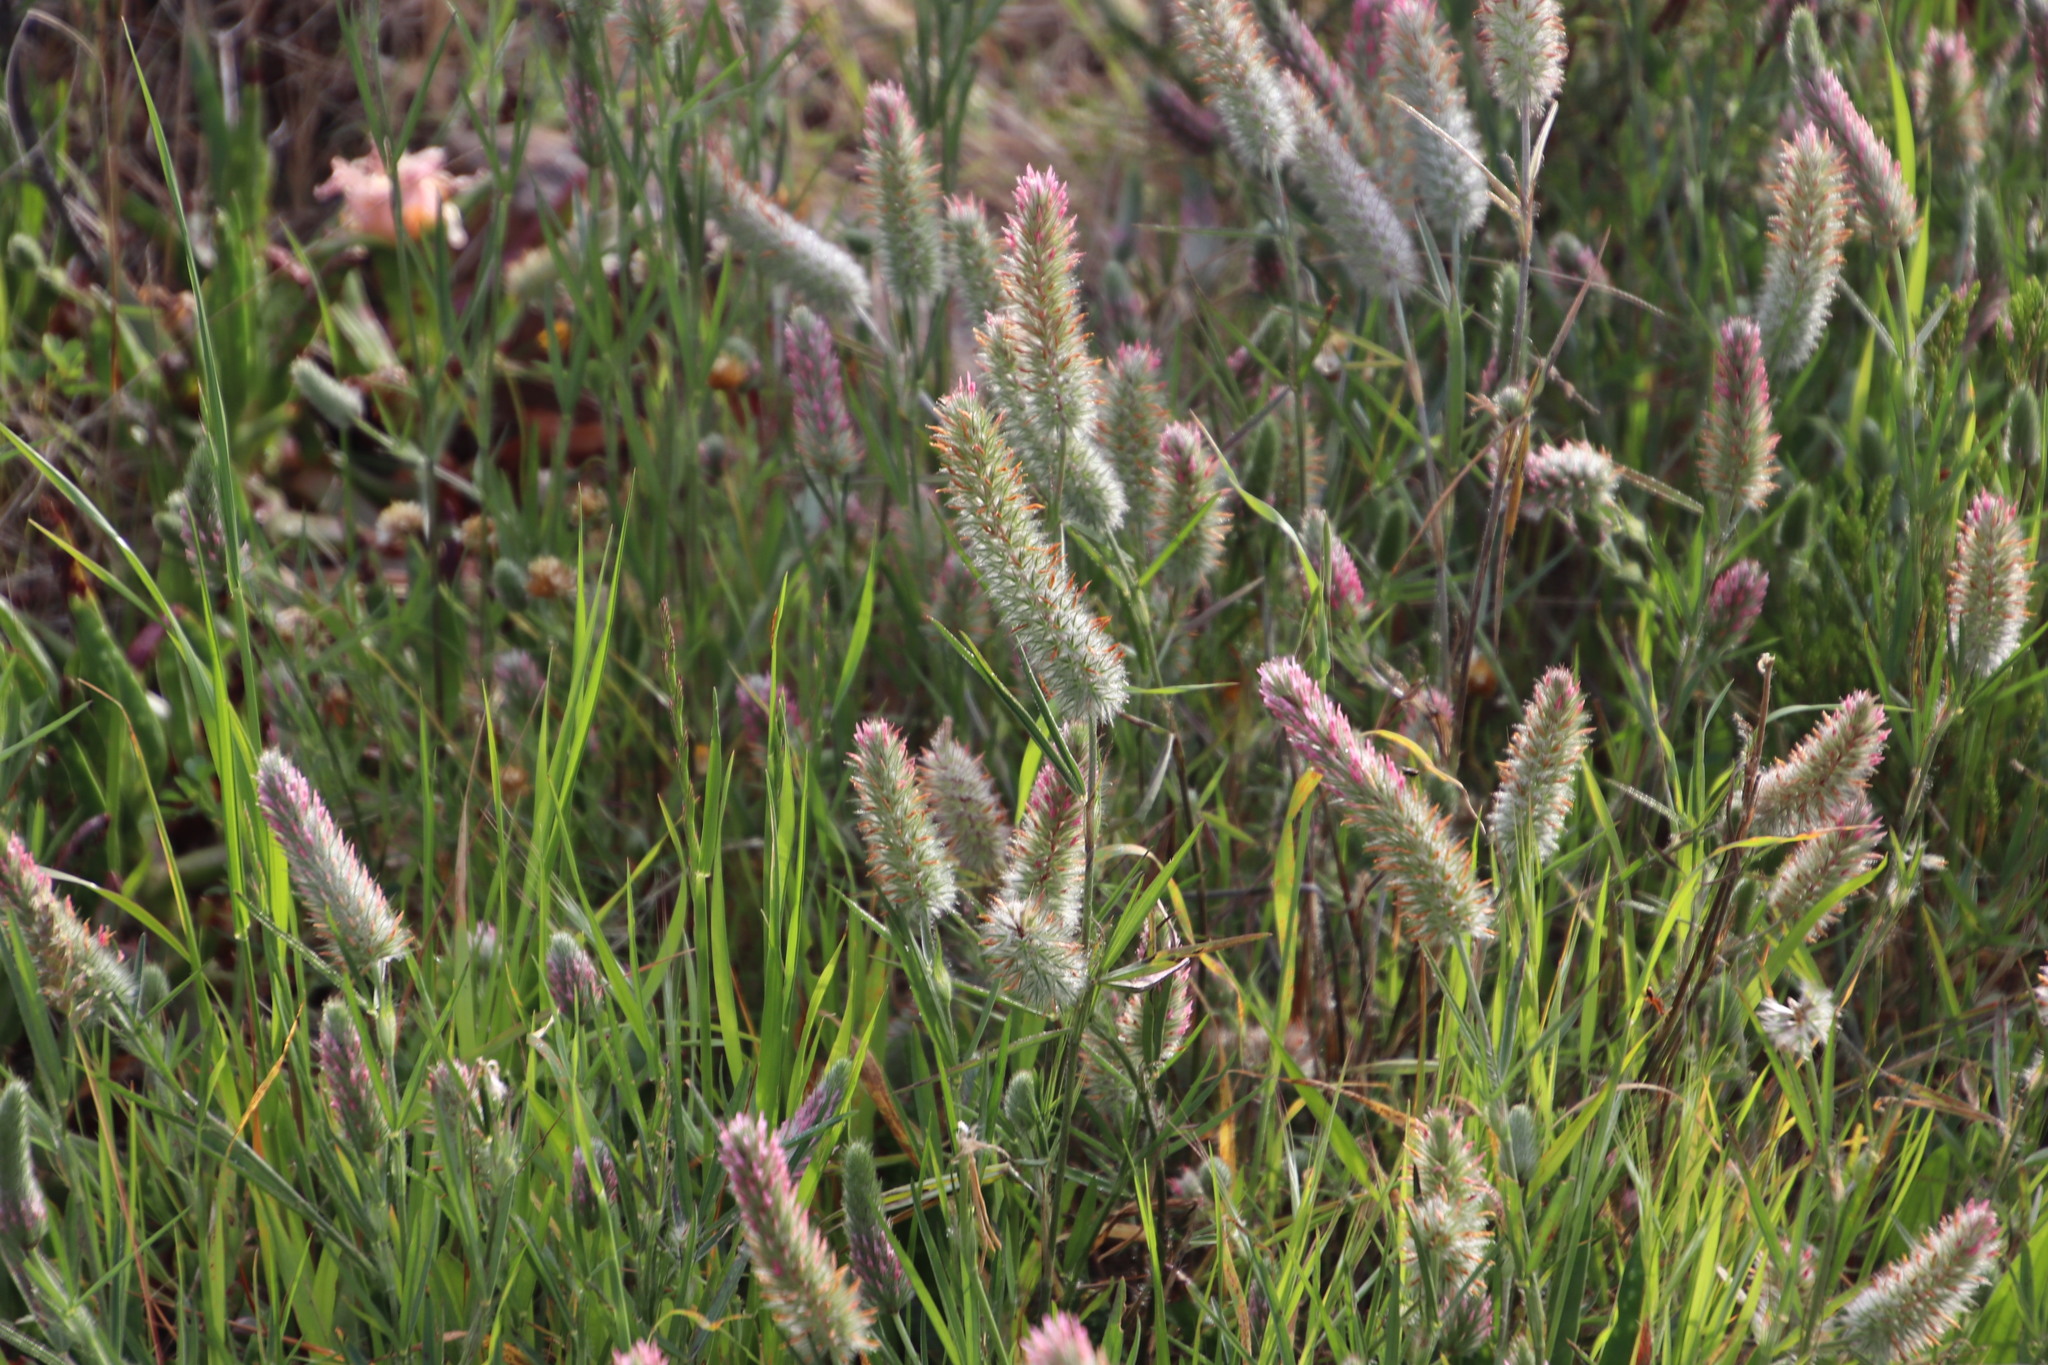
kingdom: Plantae
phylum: Tracheophyta
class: Magnoliopsida
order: Fabales
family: Fabaceae
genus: Trifolium
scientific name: Trifolium angustifolium
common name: Narrow clover
